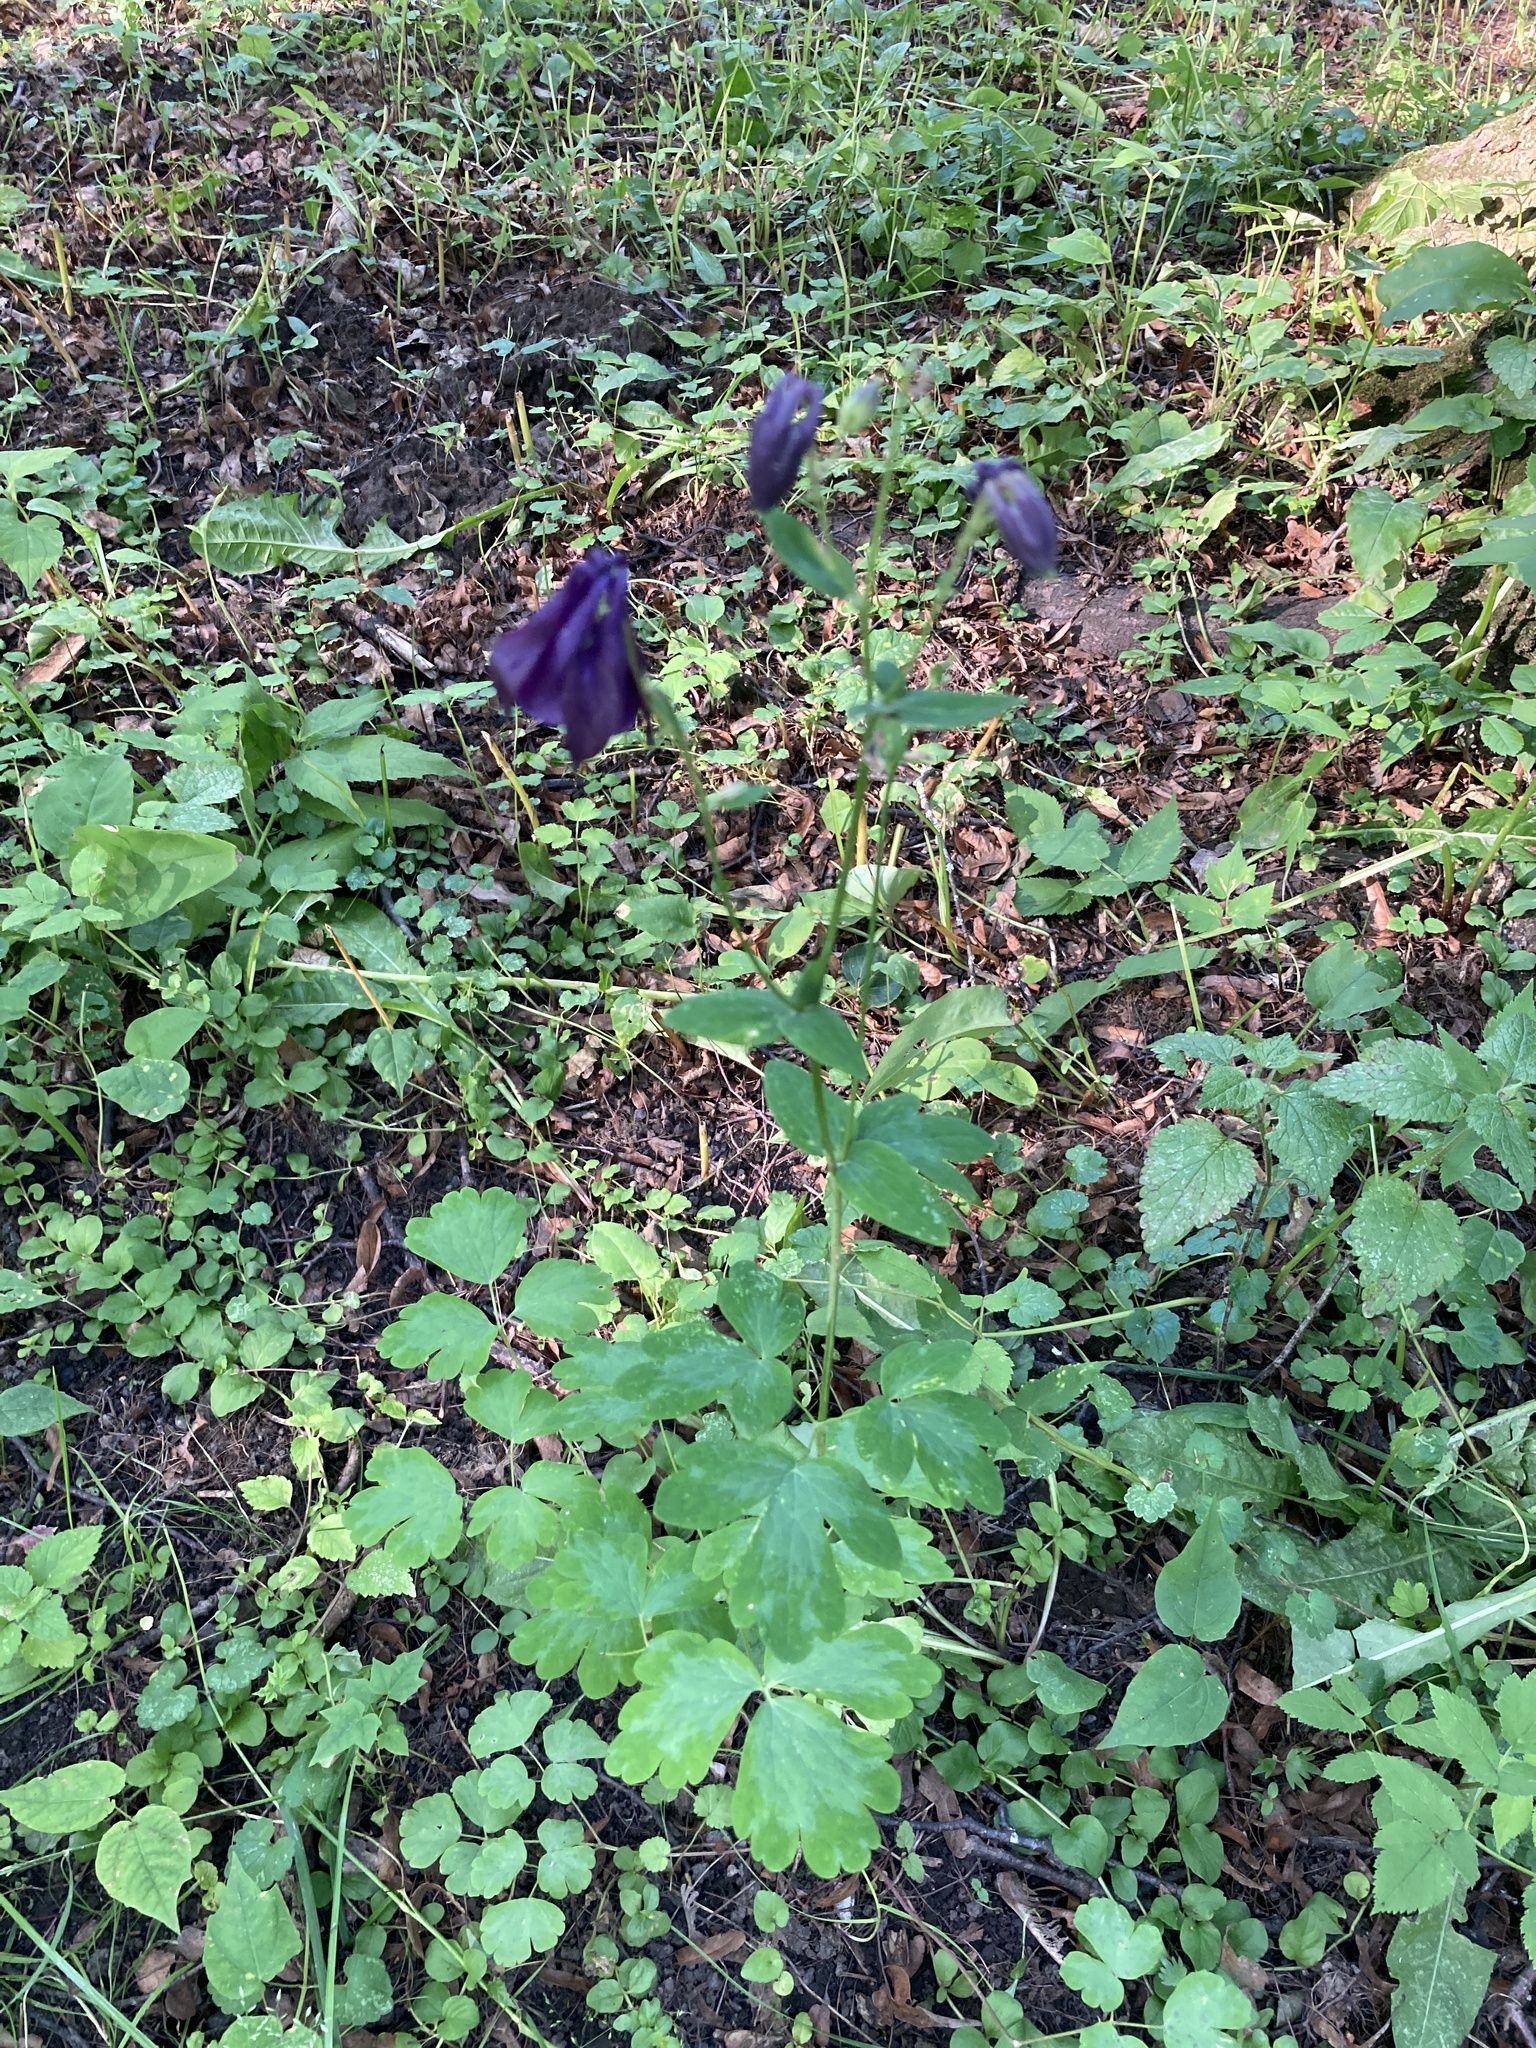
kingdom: Plantae
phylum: Tracheophyta
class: Magnoliopsida
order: Ranunculales
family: Ranunculaceae
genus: Aquilegia
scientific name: Aquilegia vulgaris
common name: Columbine
